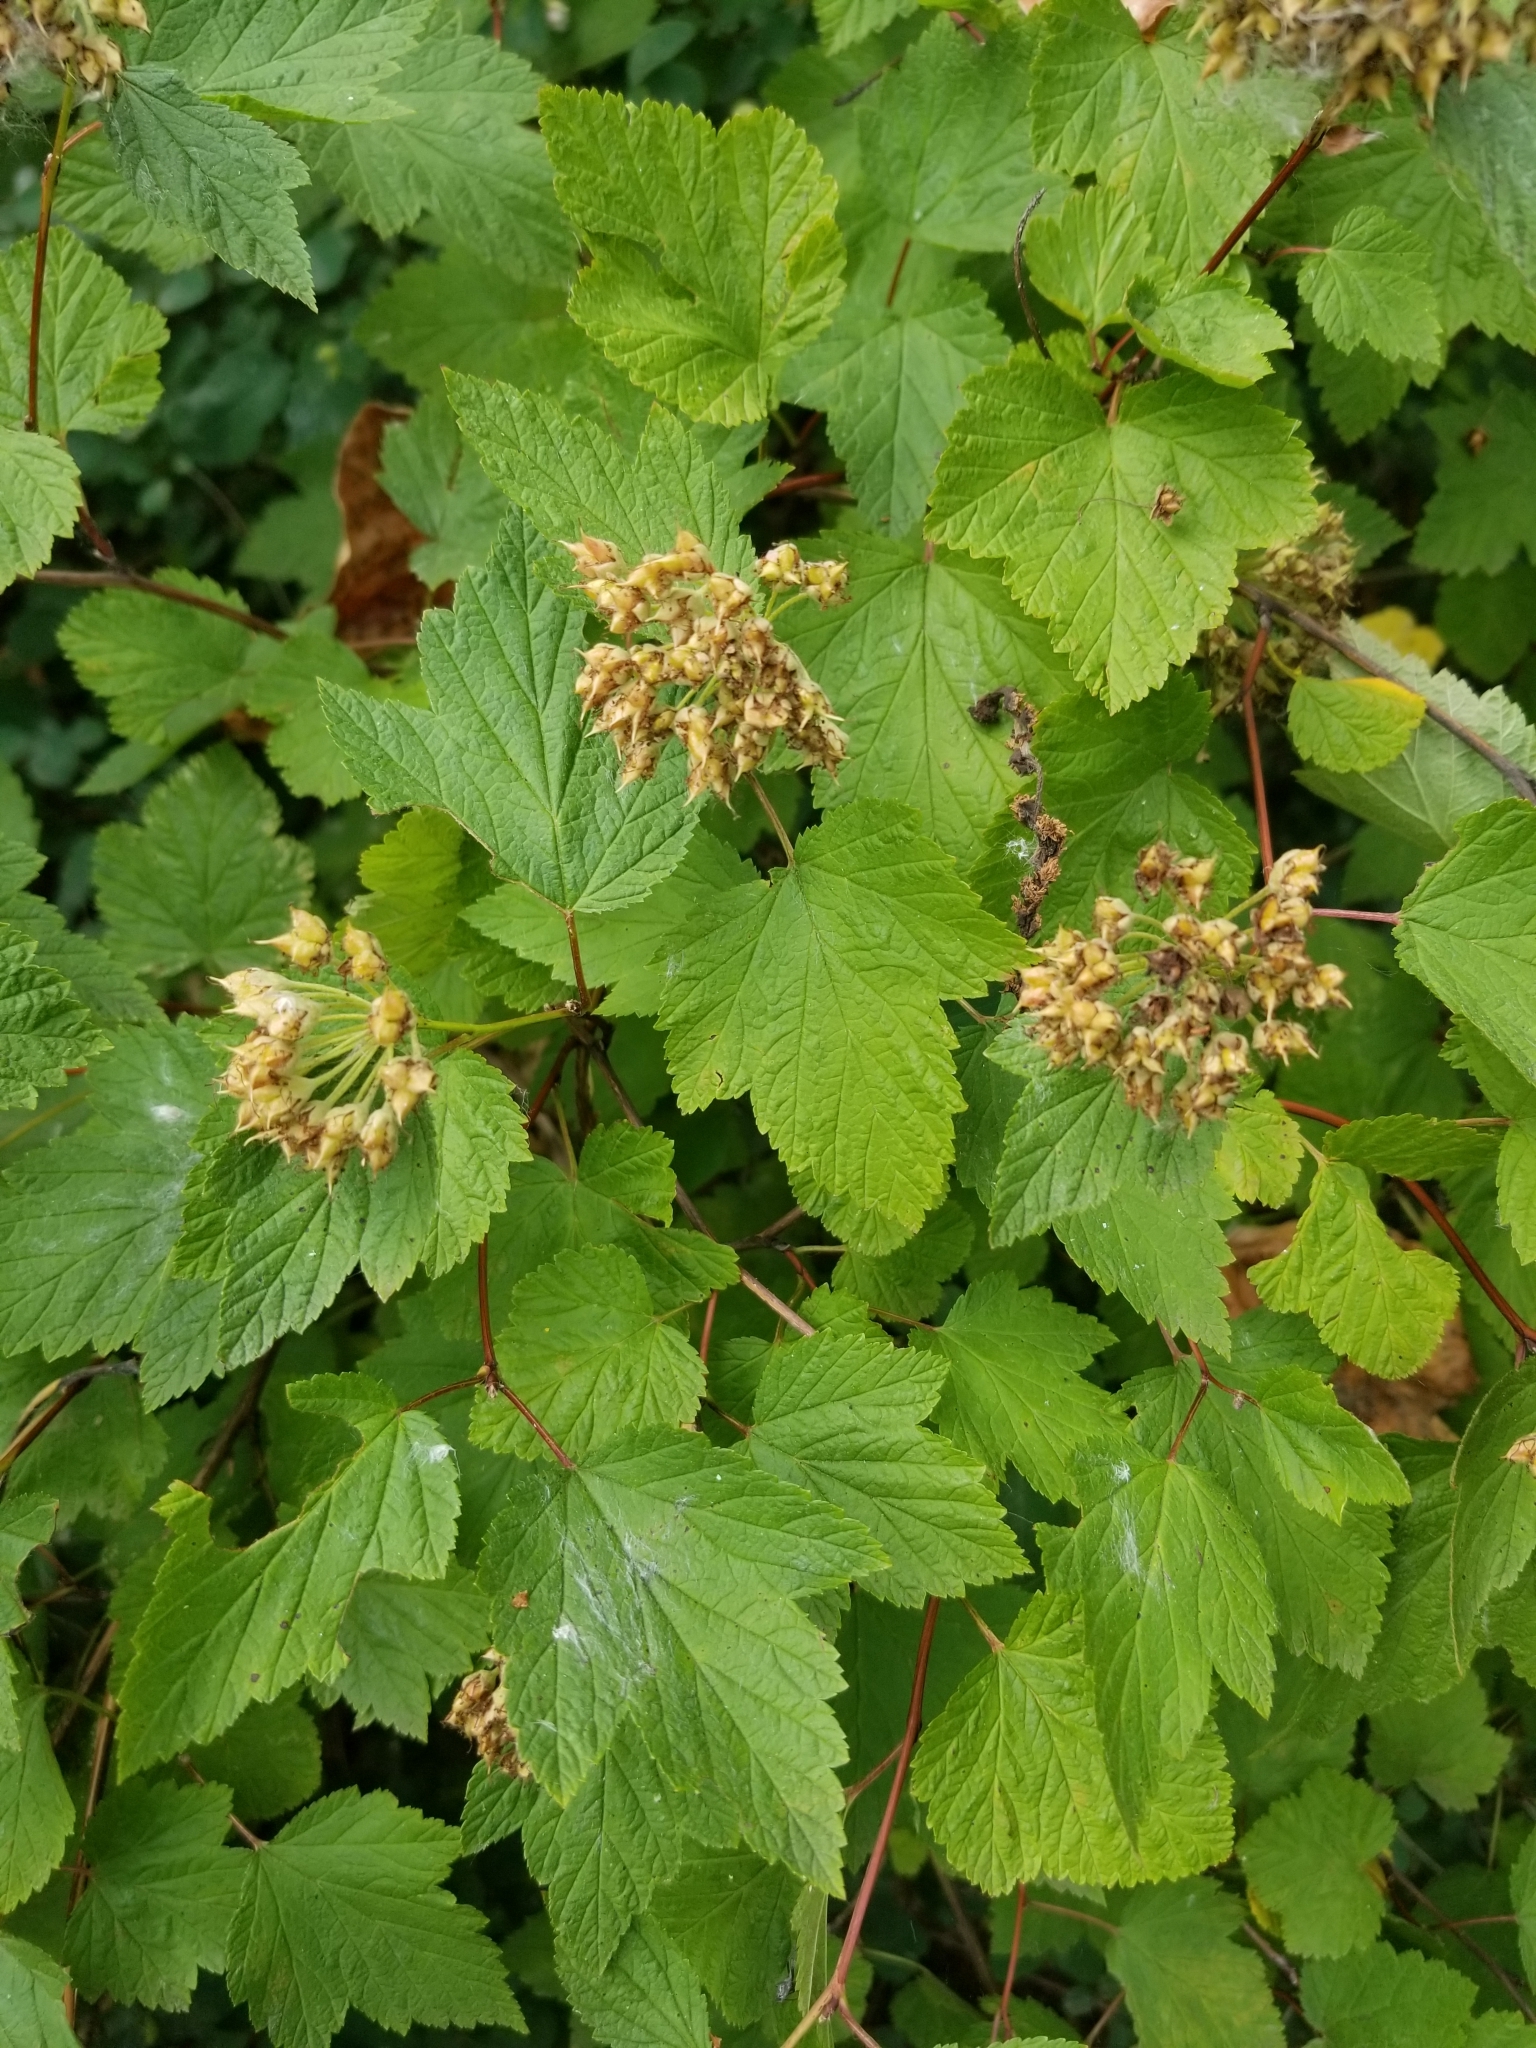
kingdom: Plantae
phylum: Tracheophyta
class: Magnoliopsida
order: Rosales
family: Rosaceae
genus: Physocarpus
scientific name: Physocarpus capitatus
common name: Pacific ninebark
